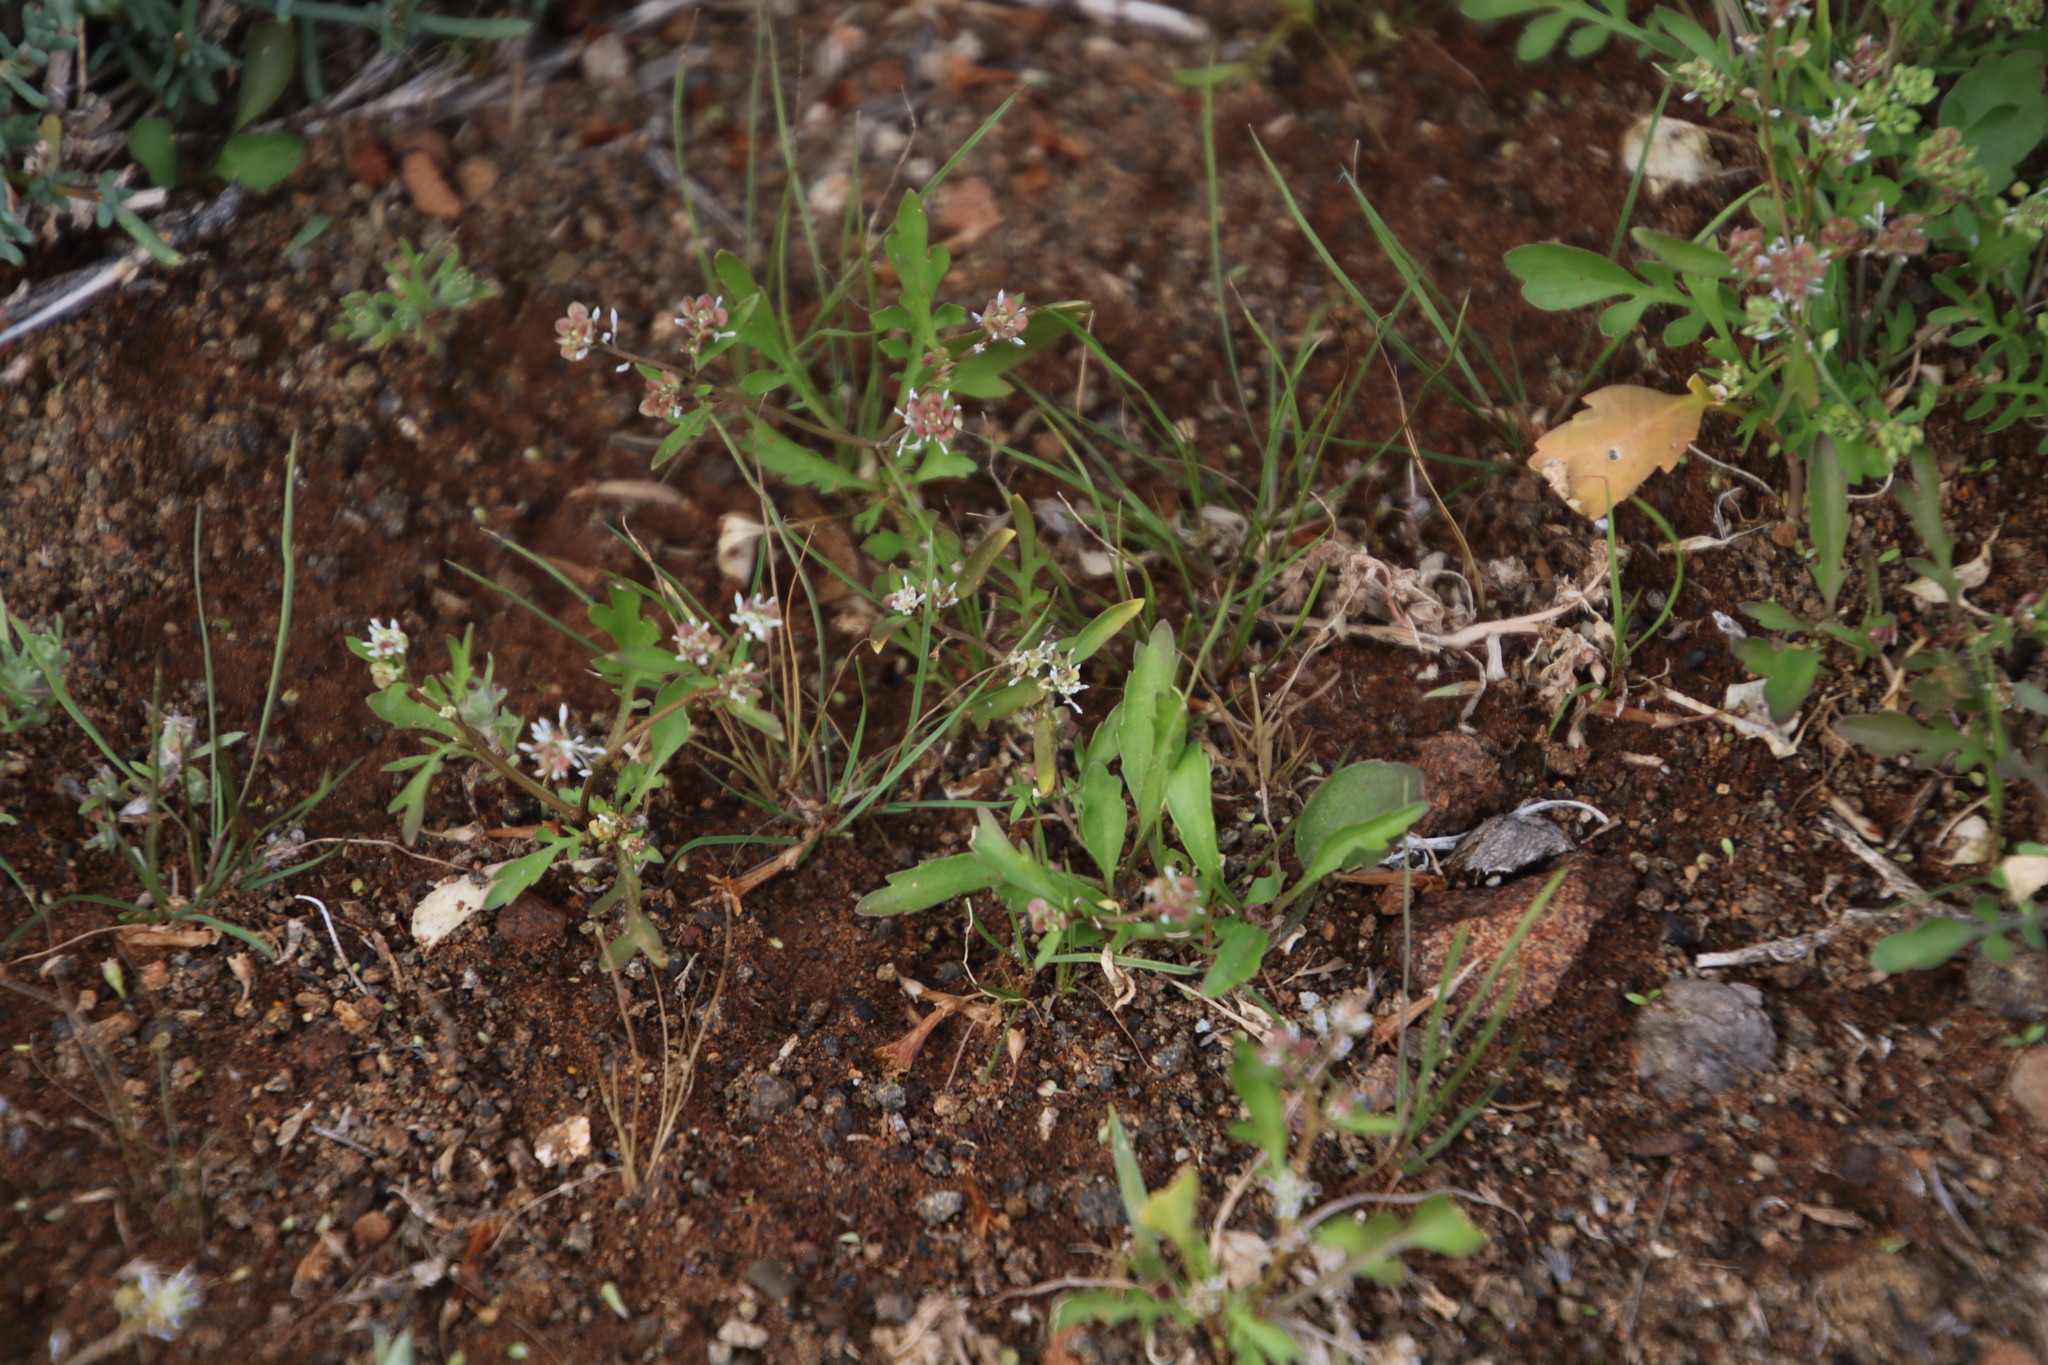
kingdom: Plantae
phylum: Tracheophyta
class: Magnoliopsida
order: Apiales
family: Apiaceae
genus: Choritaenia
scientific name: Choritaenia capensis
